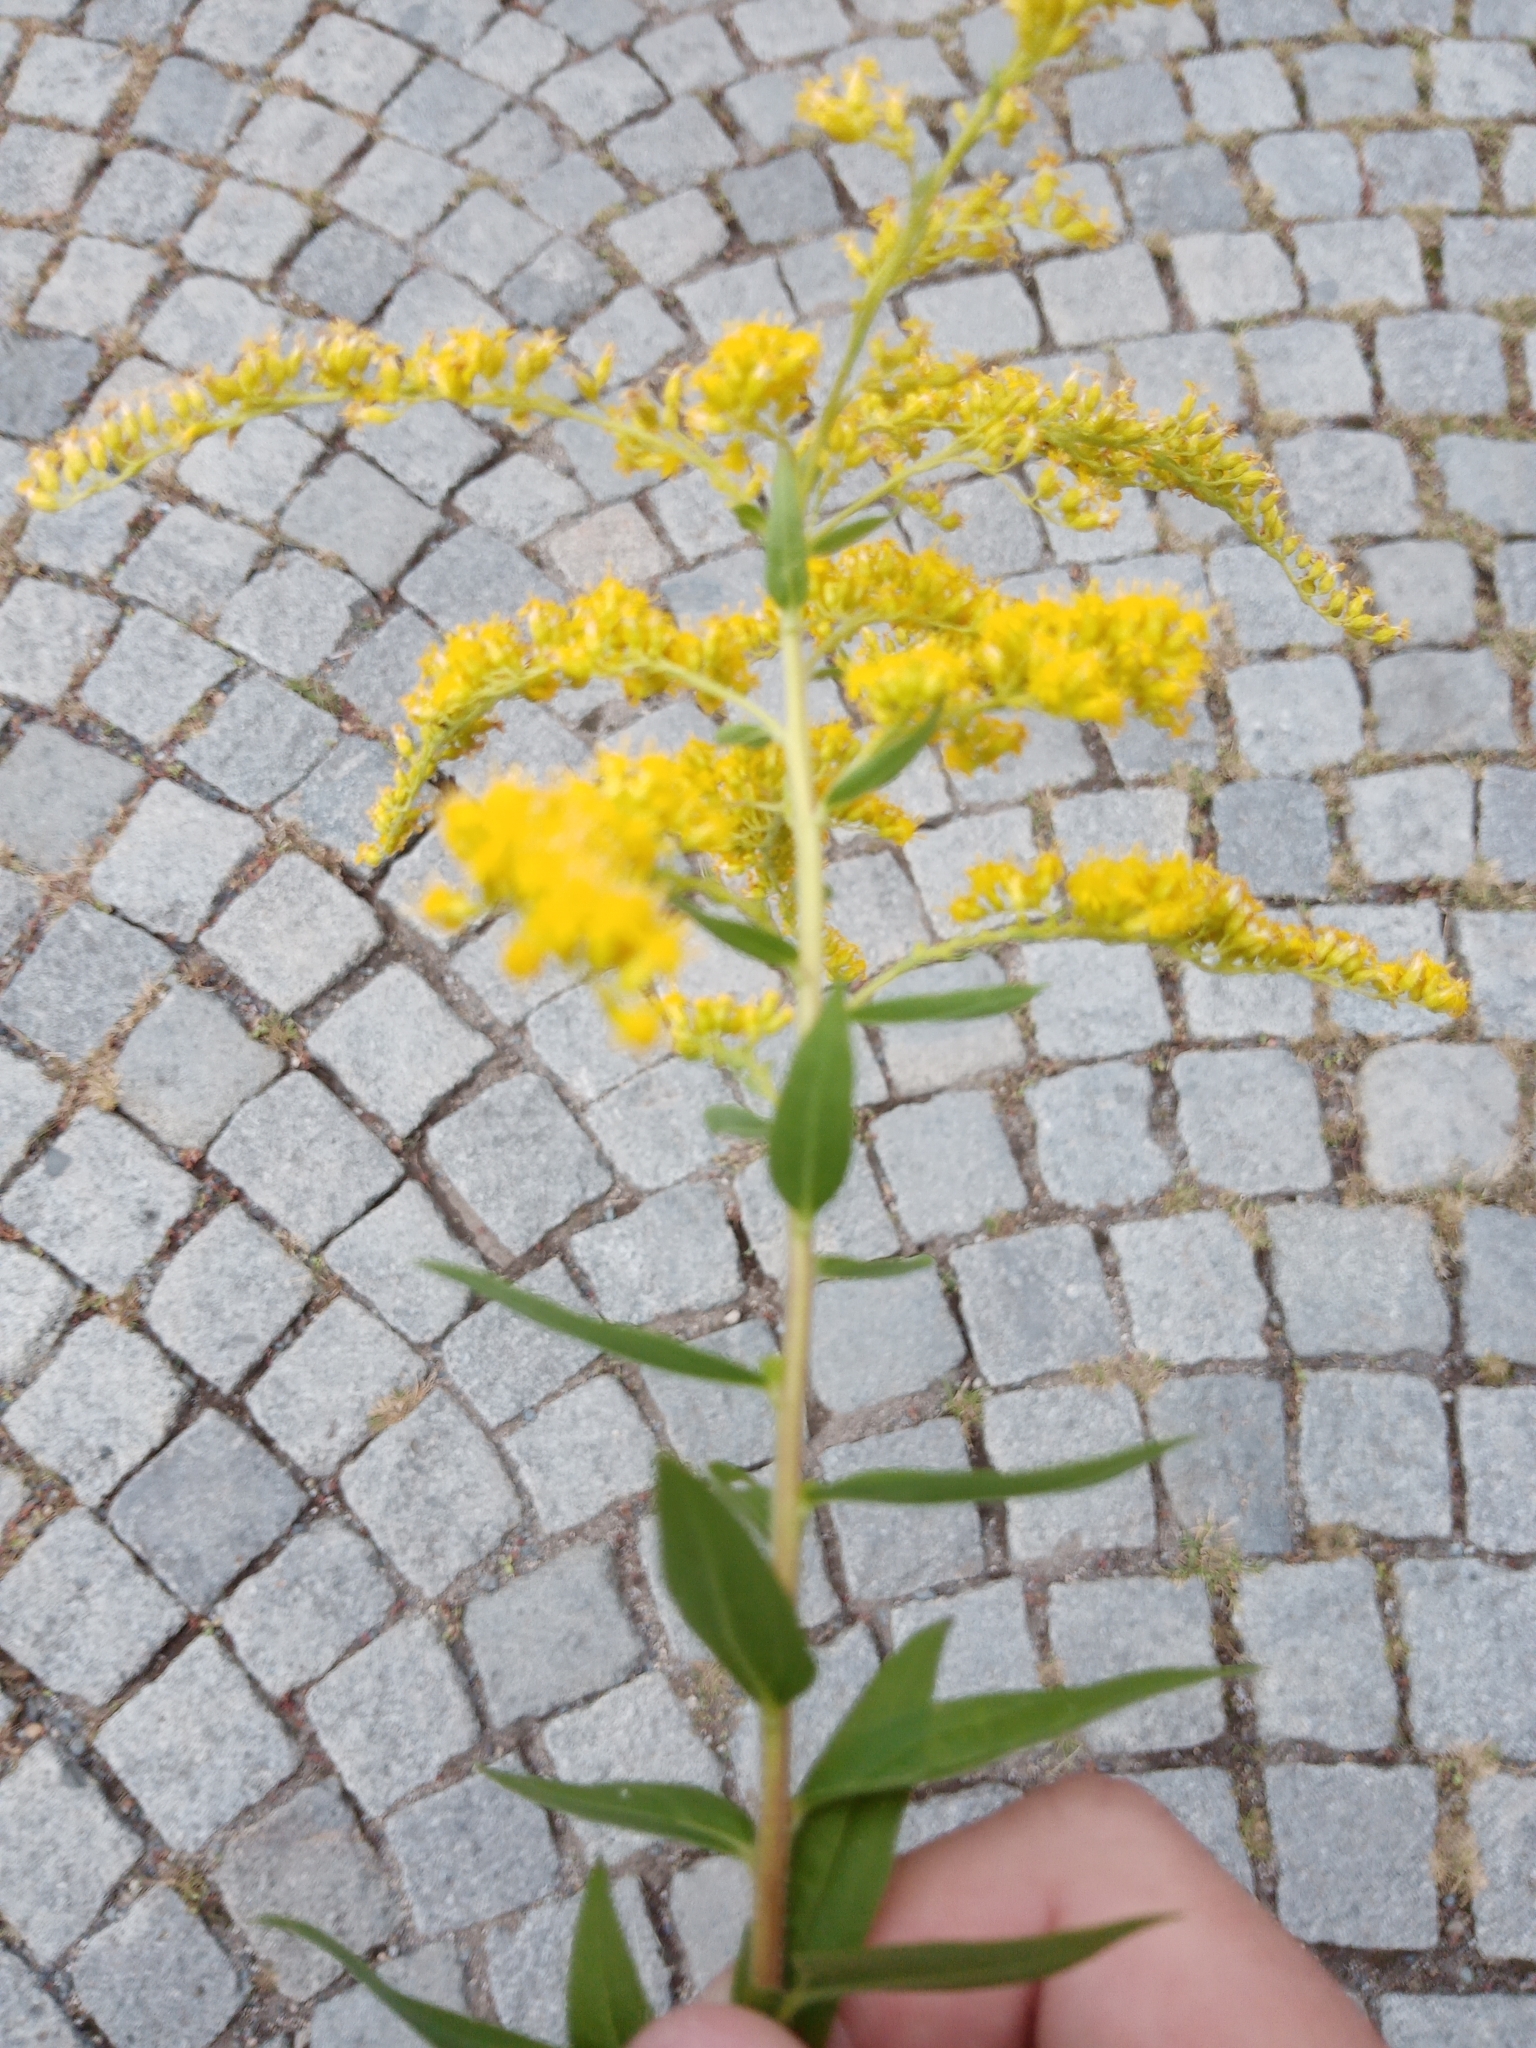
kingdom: Plantae
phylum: Tracheophyta
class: Magnoliopsida
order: Asterales
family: Asteraceae
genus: Solidago
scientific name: Solidago canadensis
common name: Canada goldenrod
